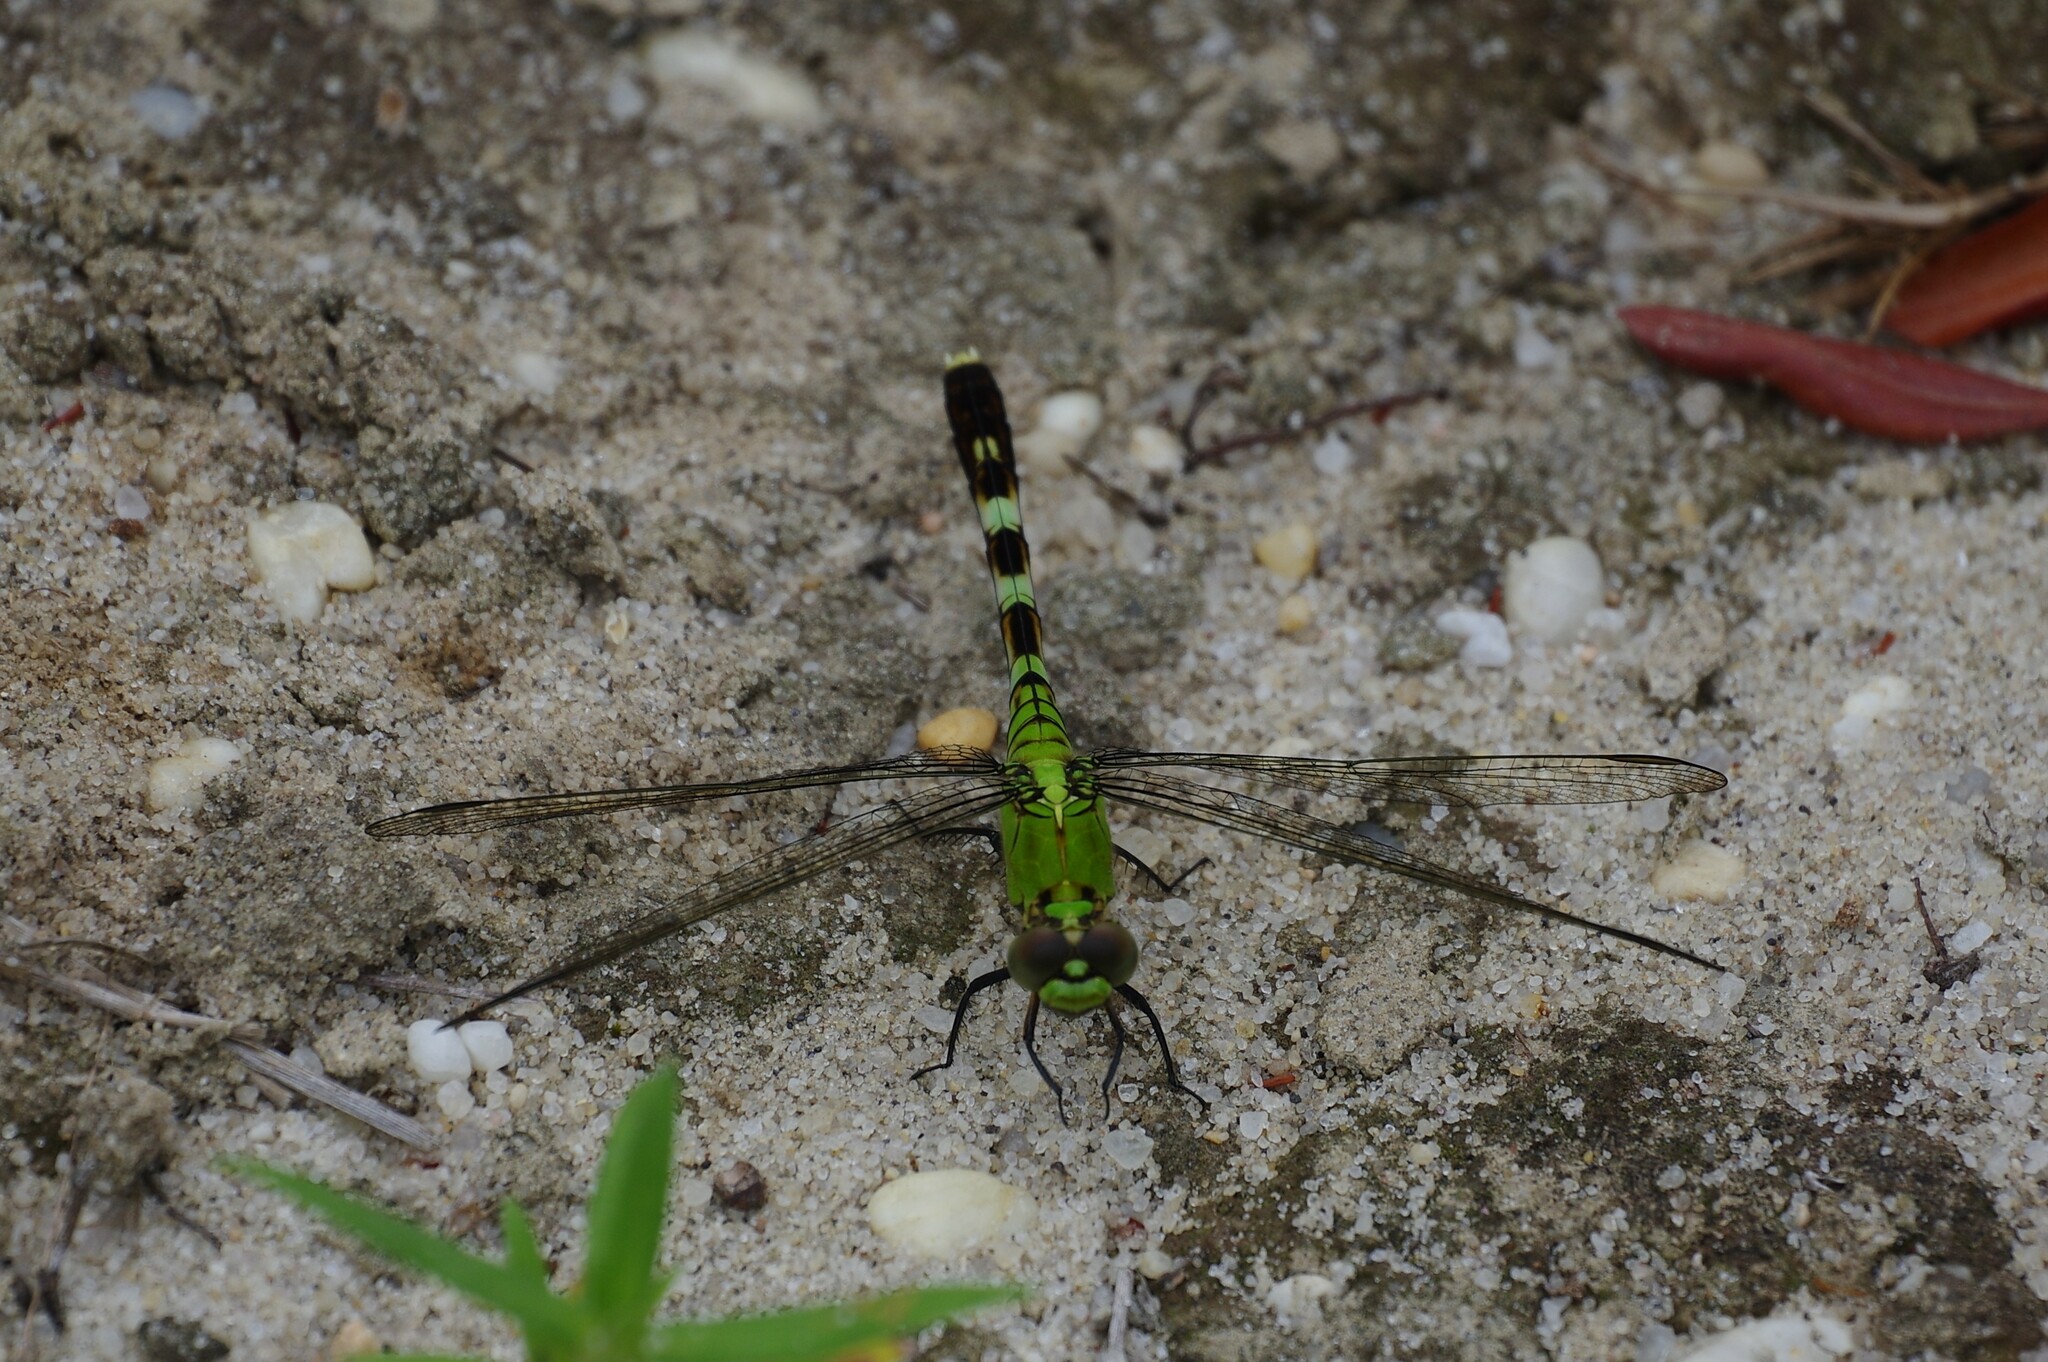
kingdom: Animalia
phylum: Arthropoda
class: Insecta
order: Odonata
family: Libellulidae
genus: Erythemis
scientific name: Erythemis simplicicollis
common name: Eastern pondhawk
